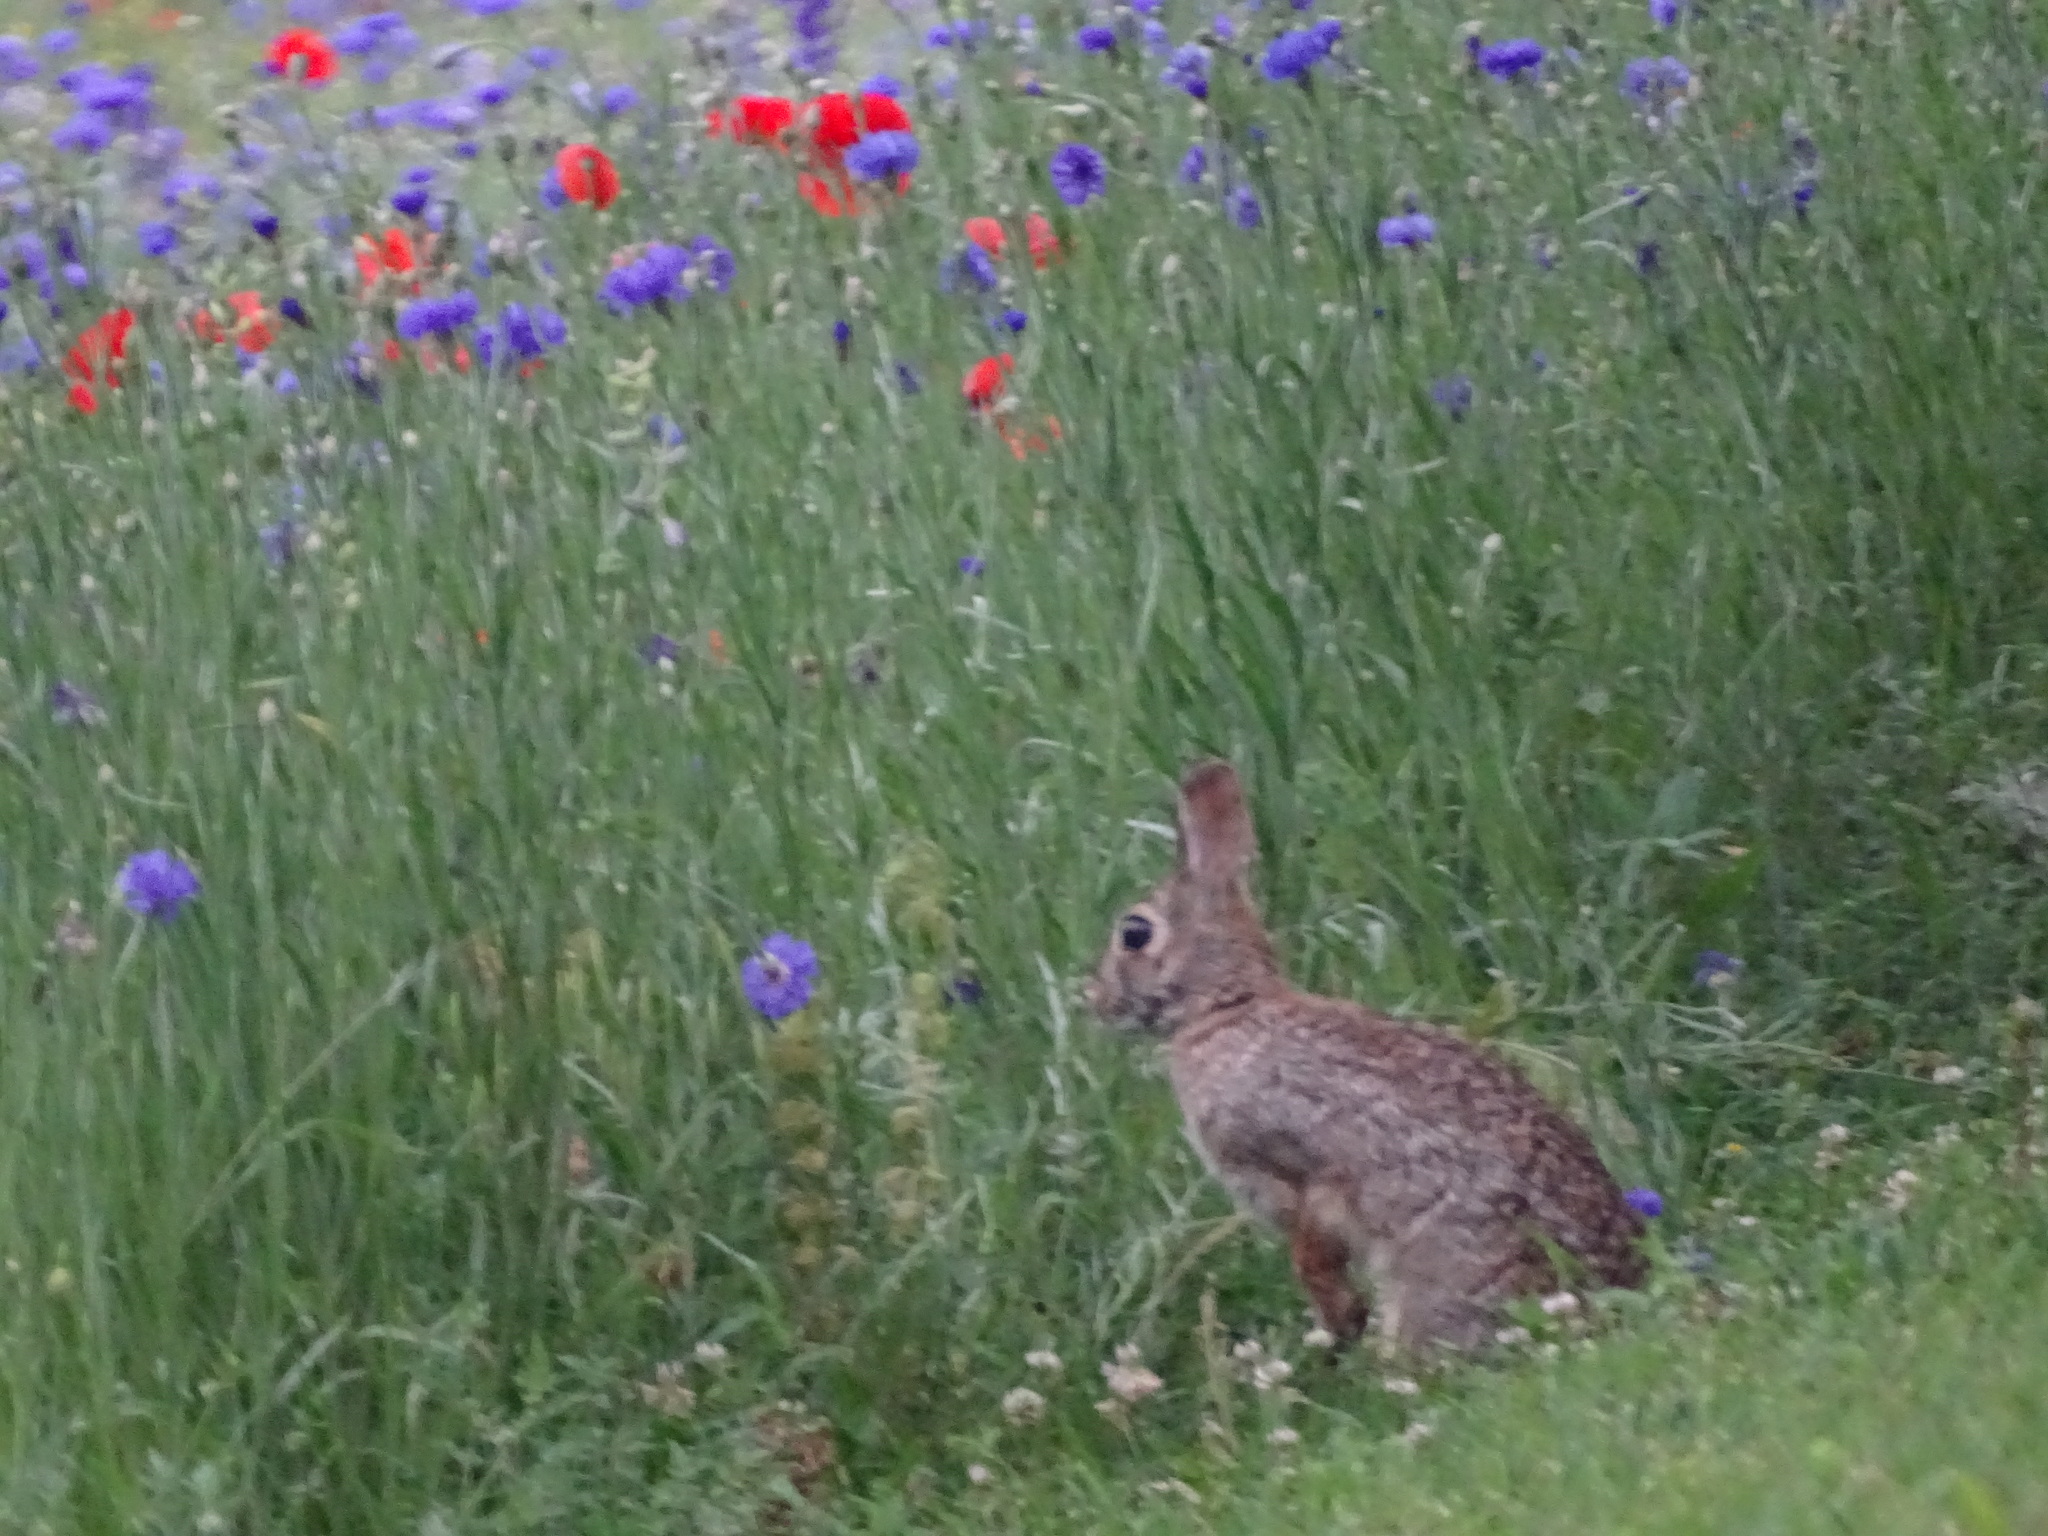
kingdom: Animalia
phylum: Chordata
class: Mammalia
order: Lagomorpha
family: Leporidae
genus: Sylvilagus
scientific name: Sylvilagus floridanus
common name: Eastern cottontail
